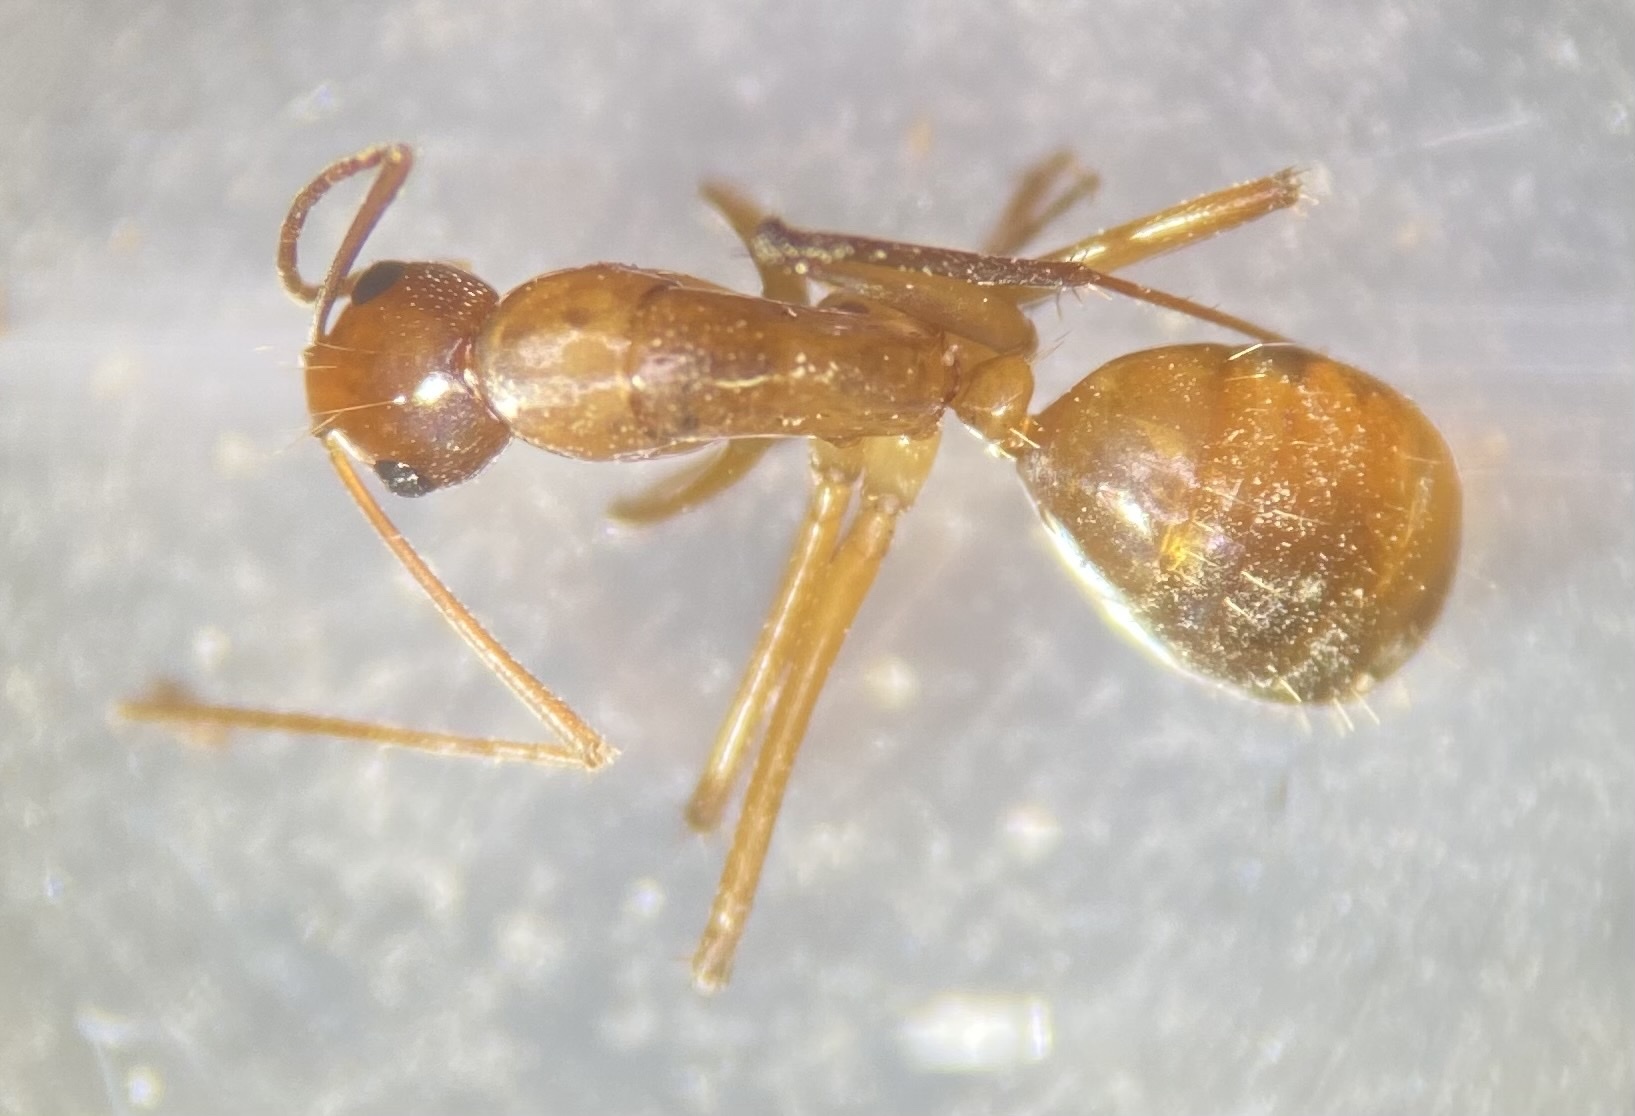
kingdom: Animalia
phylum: Arthropoda
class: Insecta
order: Hymenoptera
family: Formicidae
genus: Camponotus
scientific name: Camponotus castaneus
